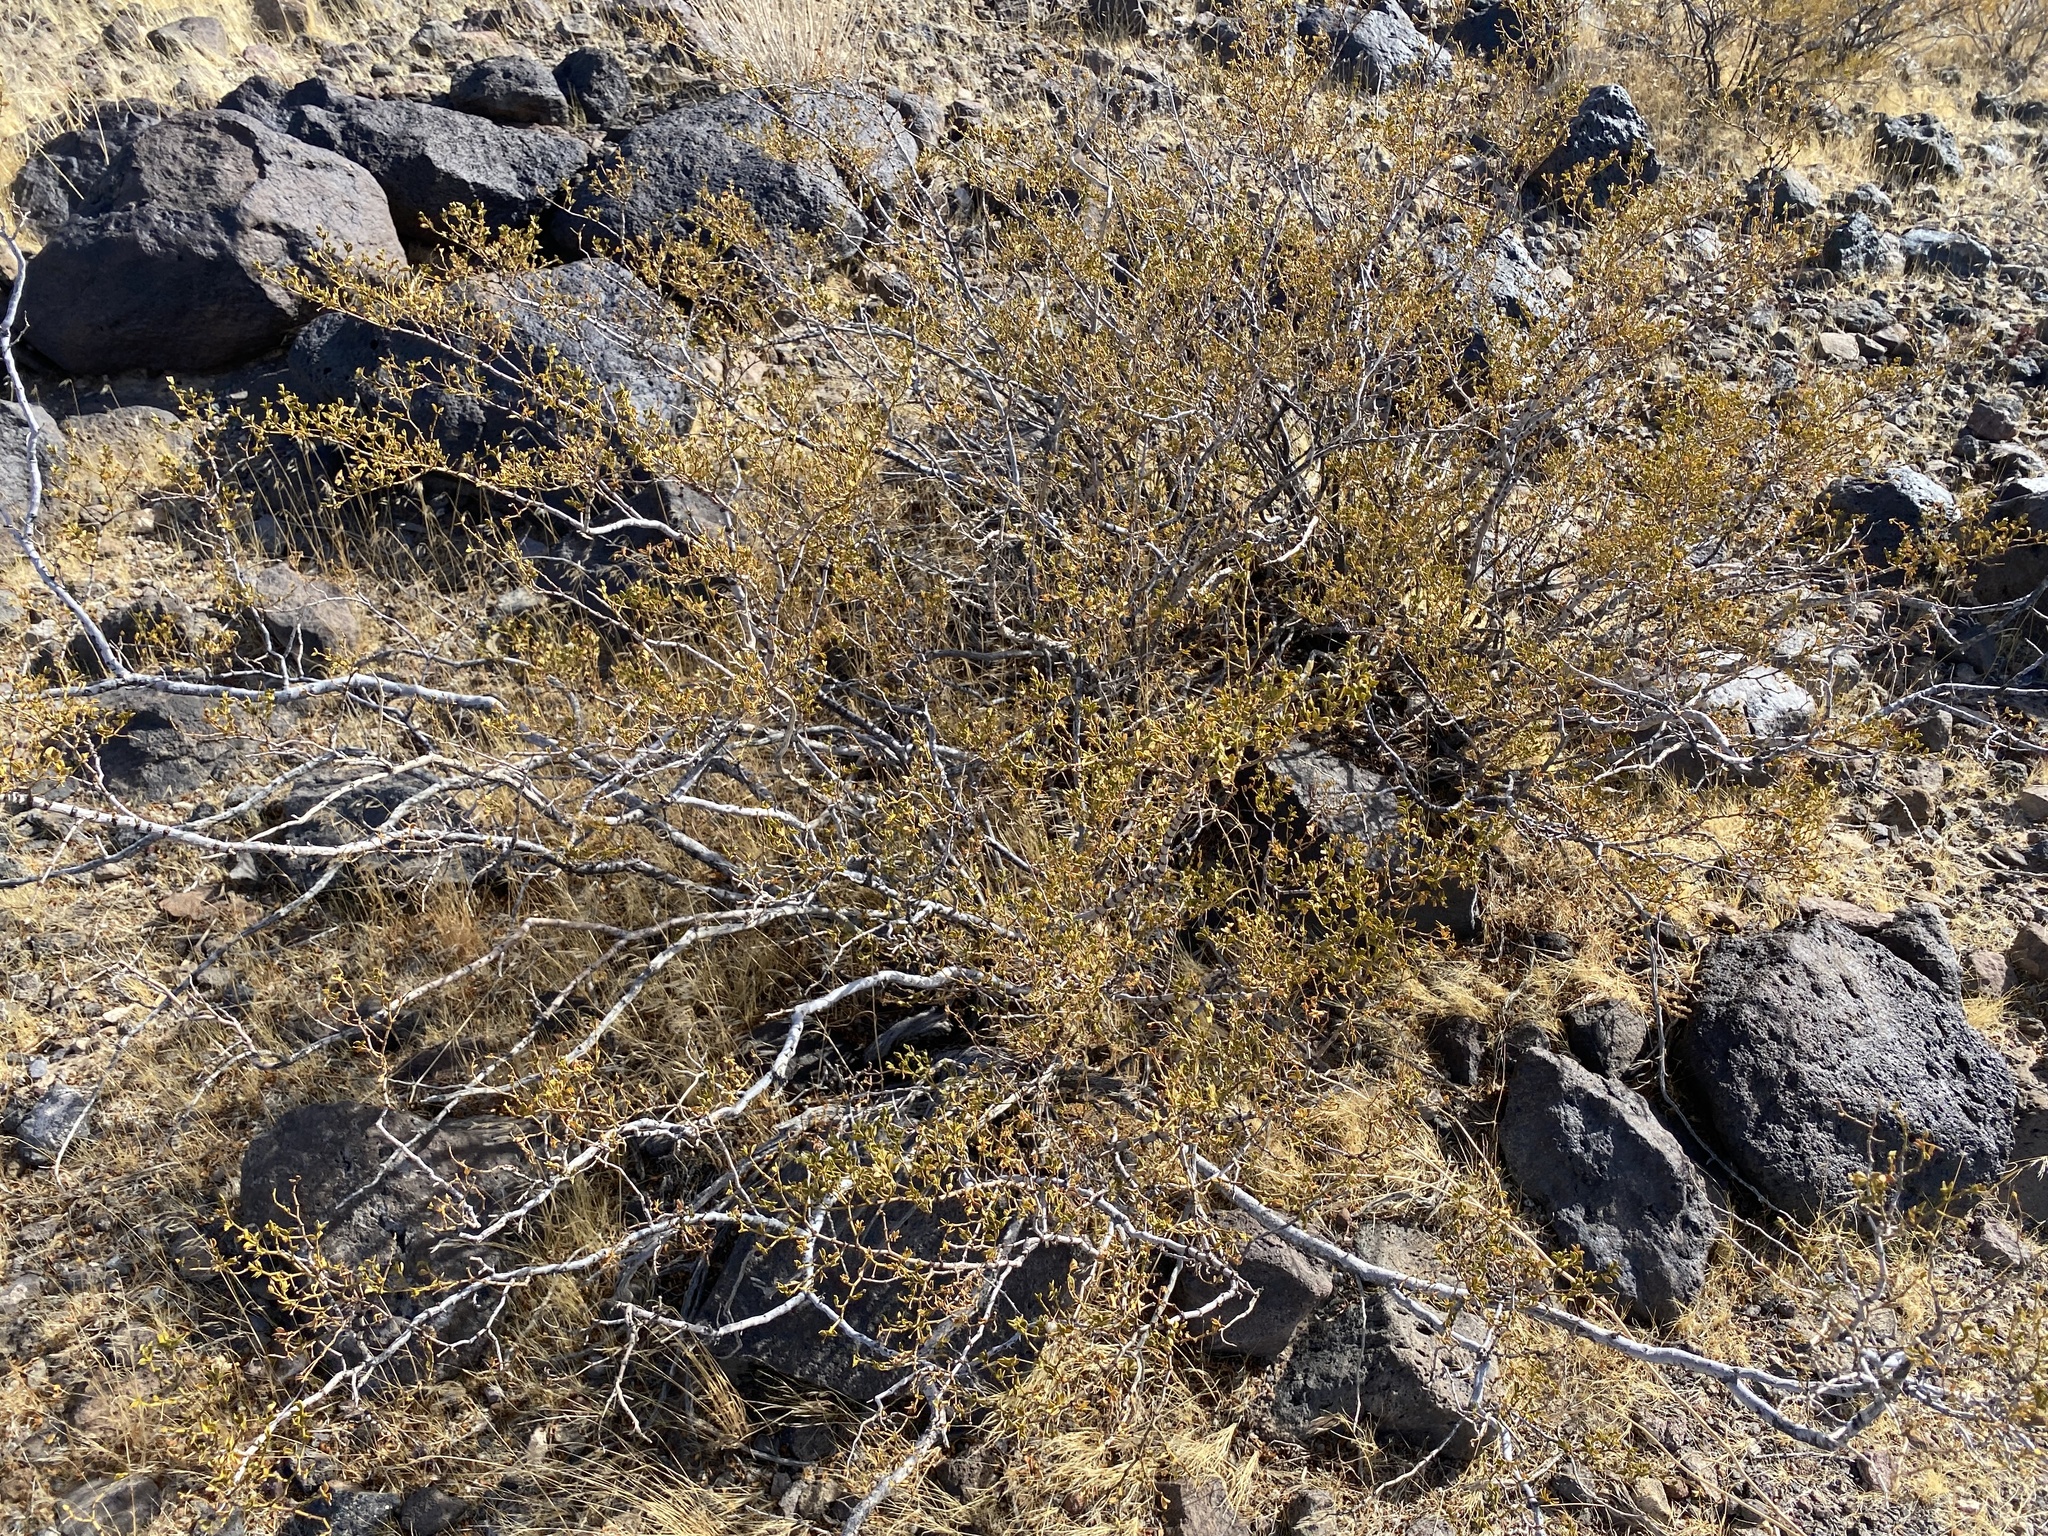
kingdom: Plantae
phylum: Tracheophyta
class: Magnoliopsida
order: Zygophyllales
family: Zygophyllaceae
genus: Larrea
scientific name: Larrea tridentata
